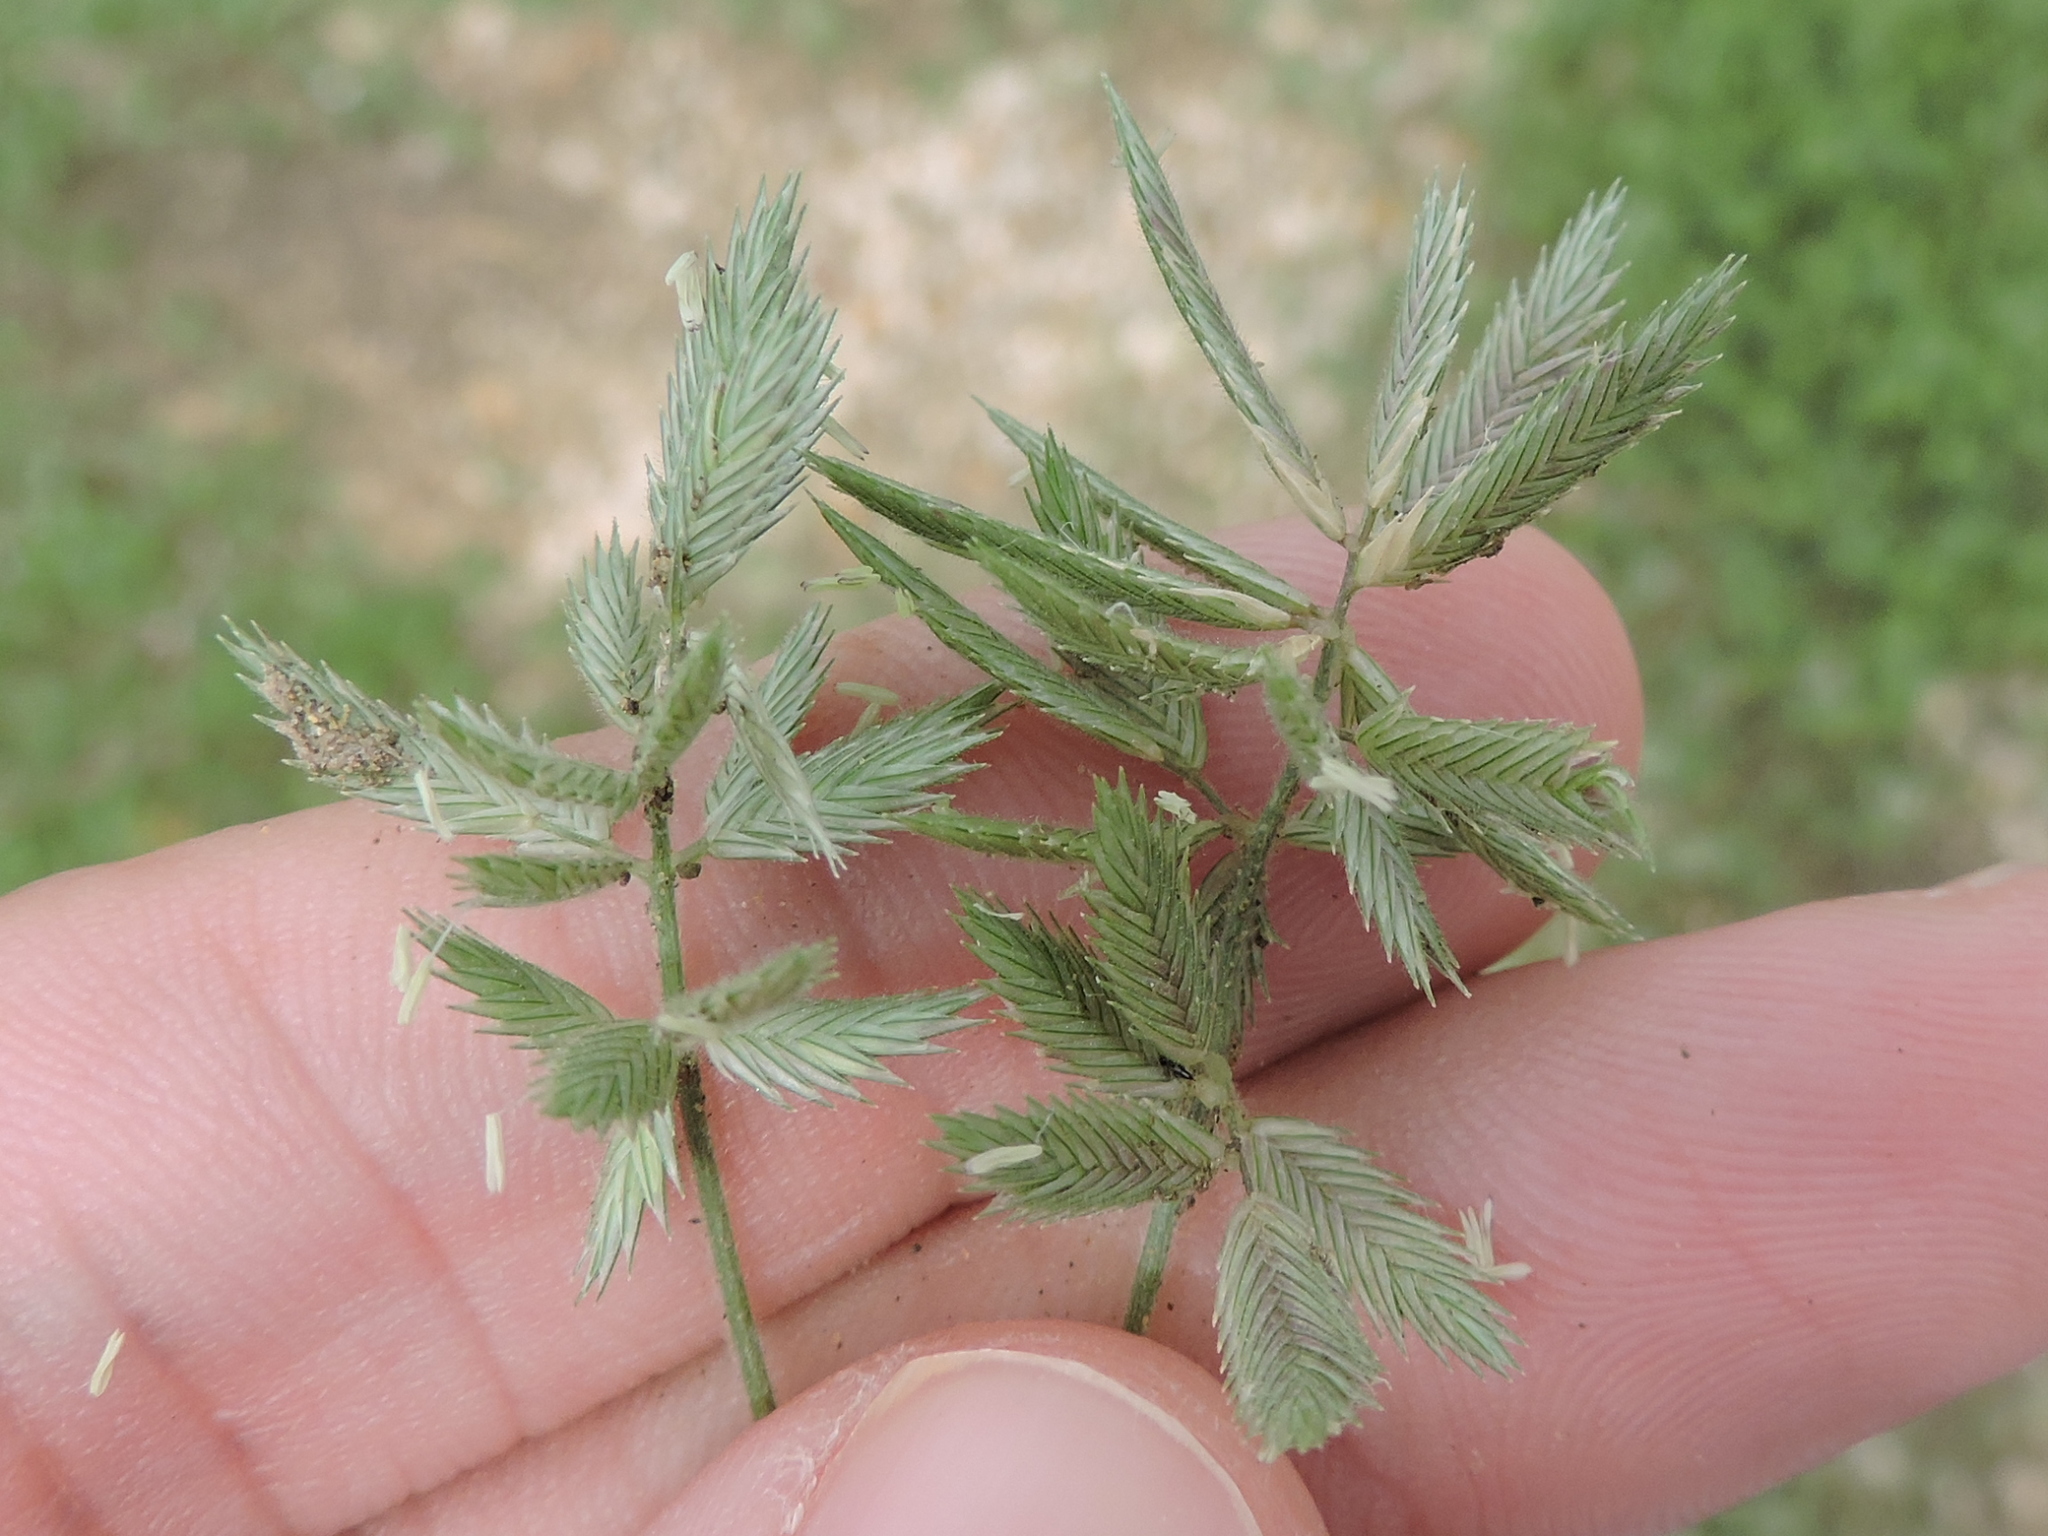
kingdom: Plantae
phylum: Tracheophyta
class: Liliopsida
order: Poales
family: Poaceae
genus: Eragrostis
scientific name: Eragrostis reptans
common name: Creeping love grass
